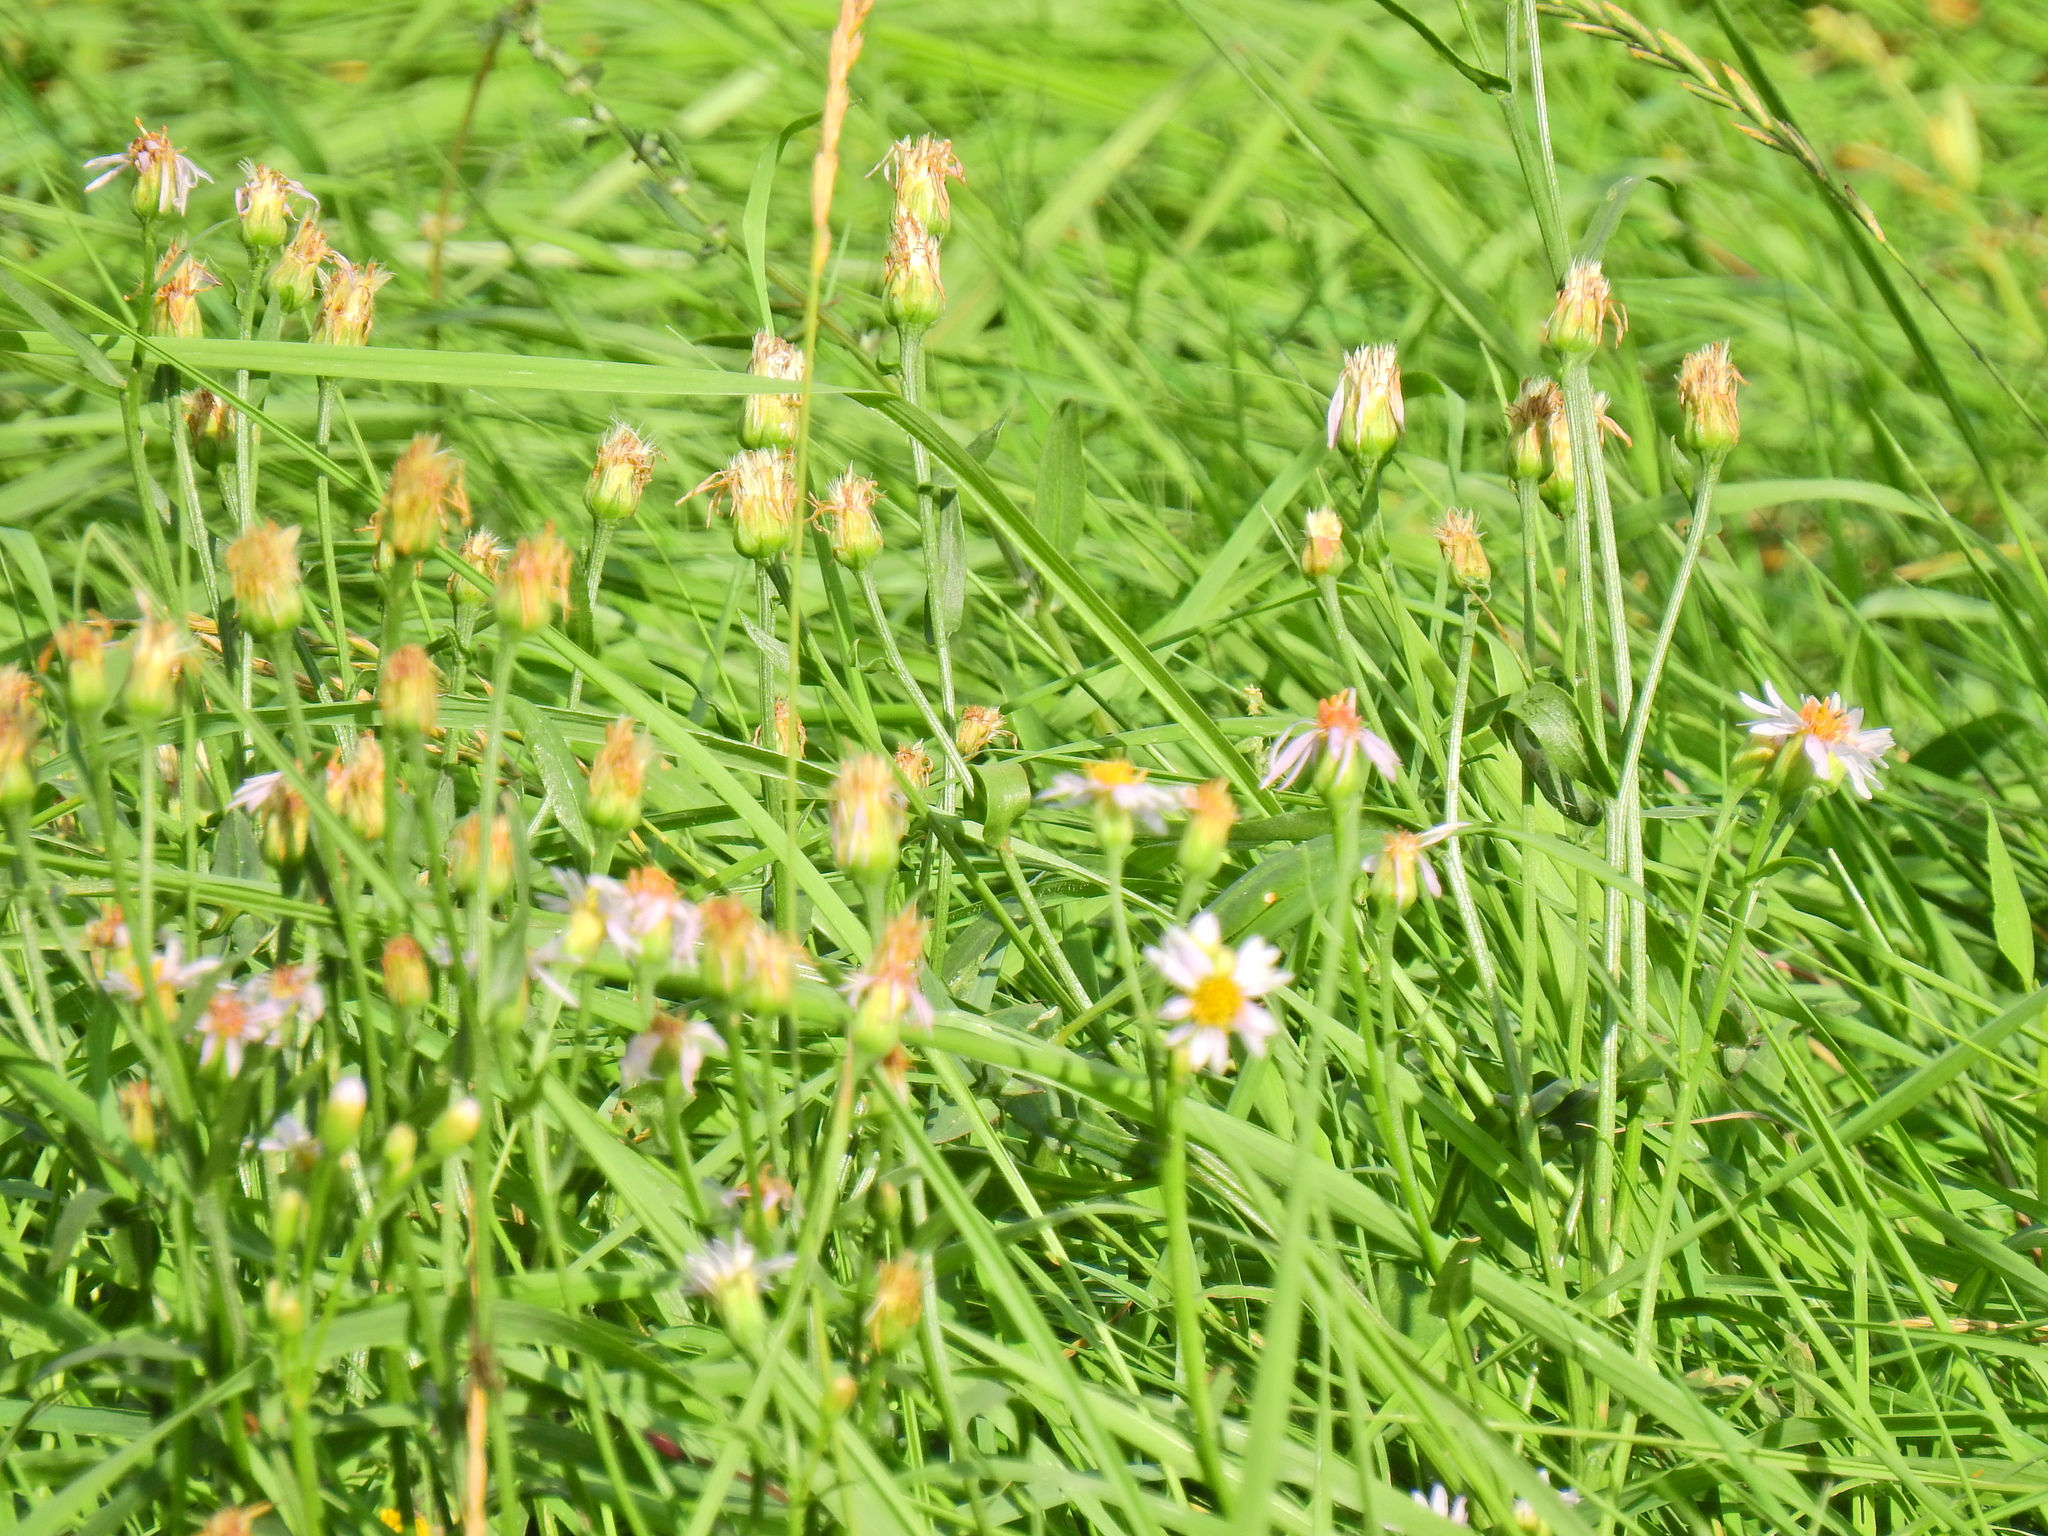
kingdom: Plantae
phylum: Tracheophyta
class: Magnoliopsida
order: Asterales
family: Asteraceae
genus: Tripolium
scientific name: Tripolium pannonicum
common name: Sea aster
